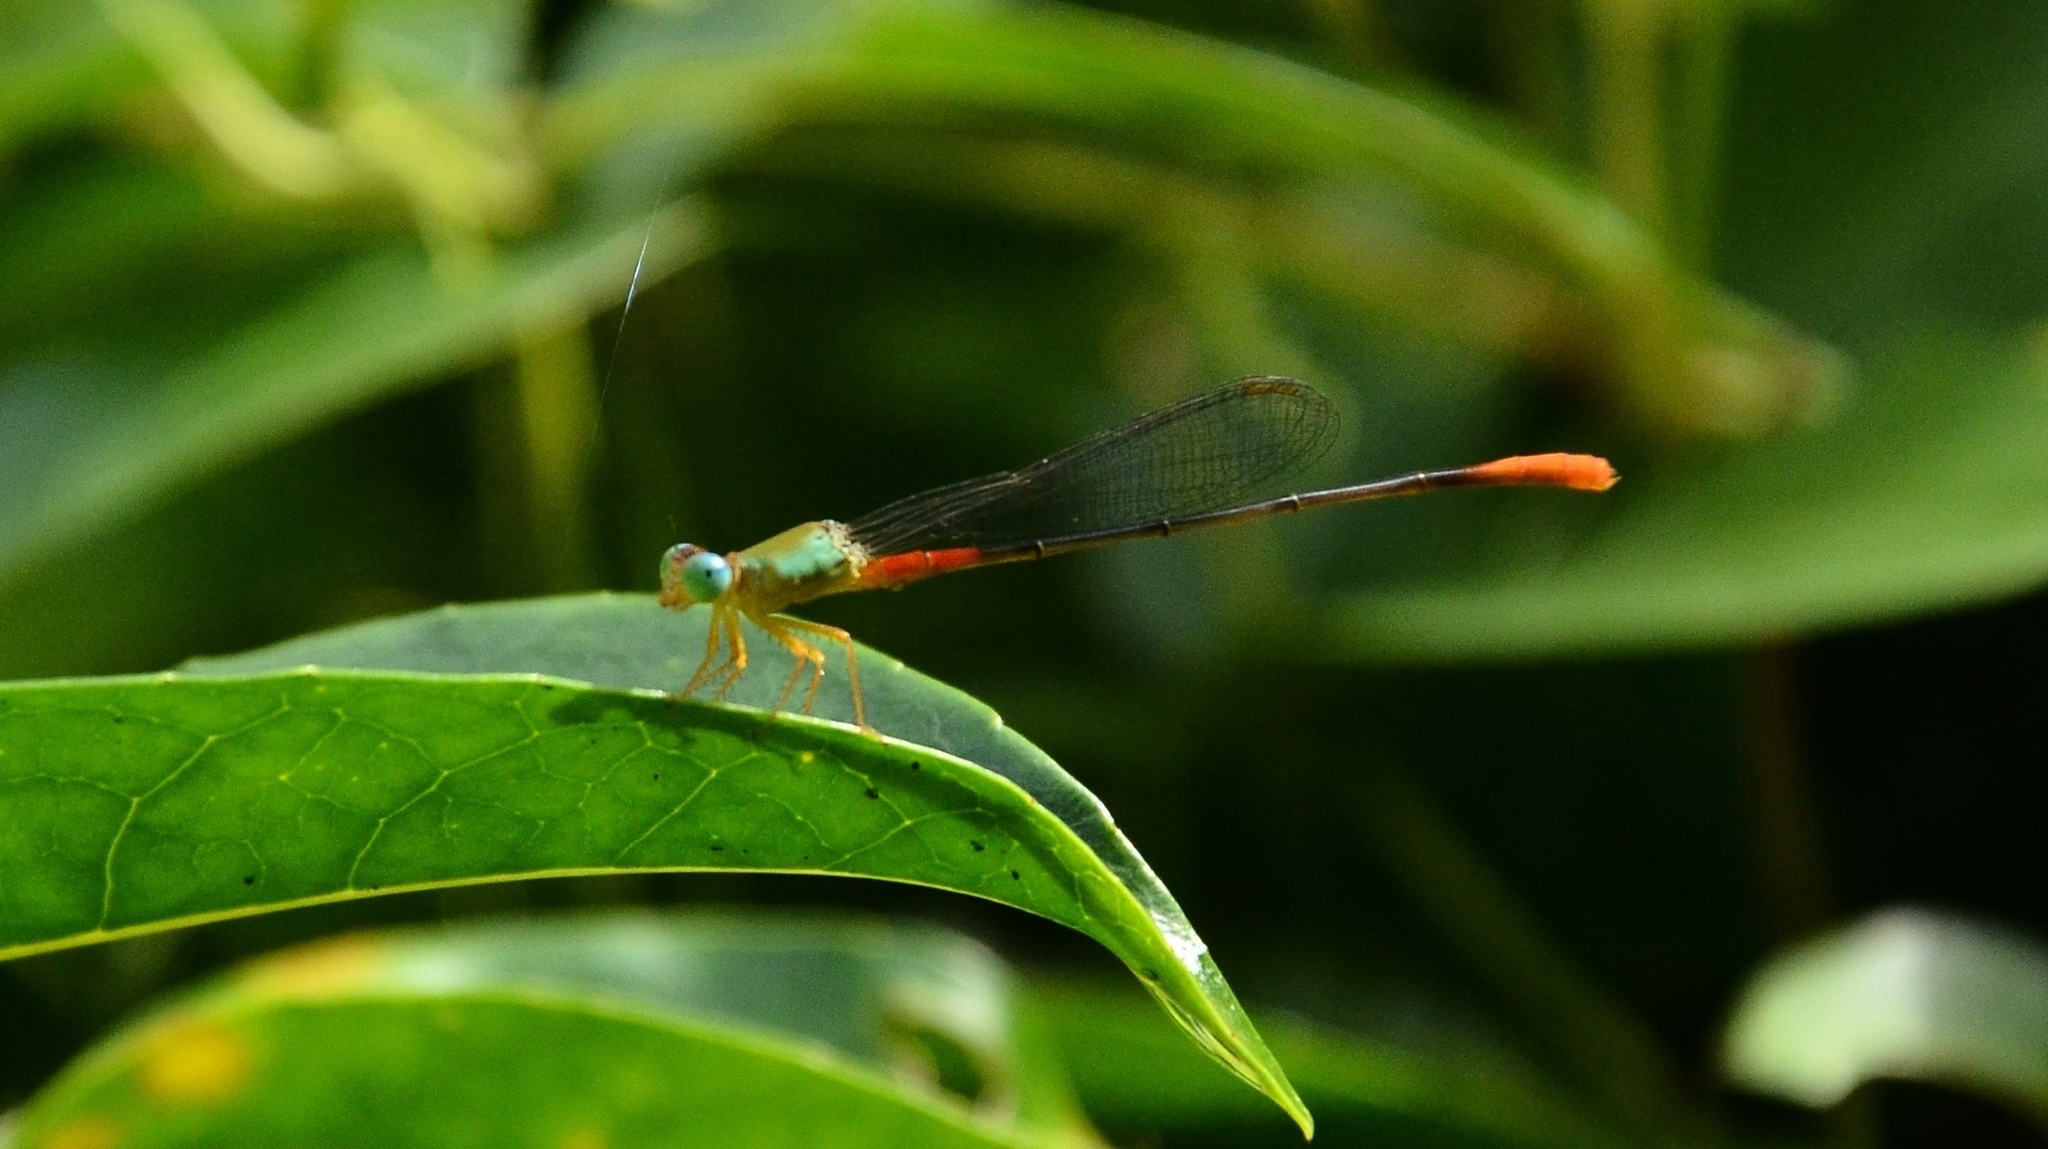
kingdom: Animalia
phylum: Arthropoda
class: Insecta
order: Odonata
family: Coenagrionidae
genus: Ceriagrion
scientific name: Ceriagrion cerinorubellum
